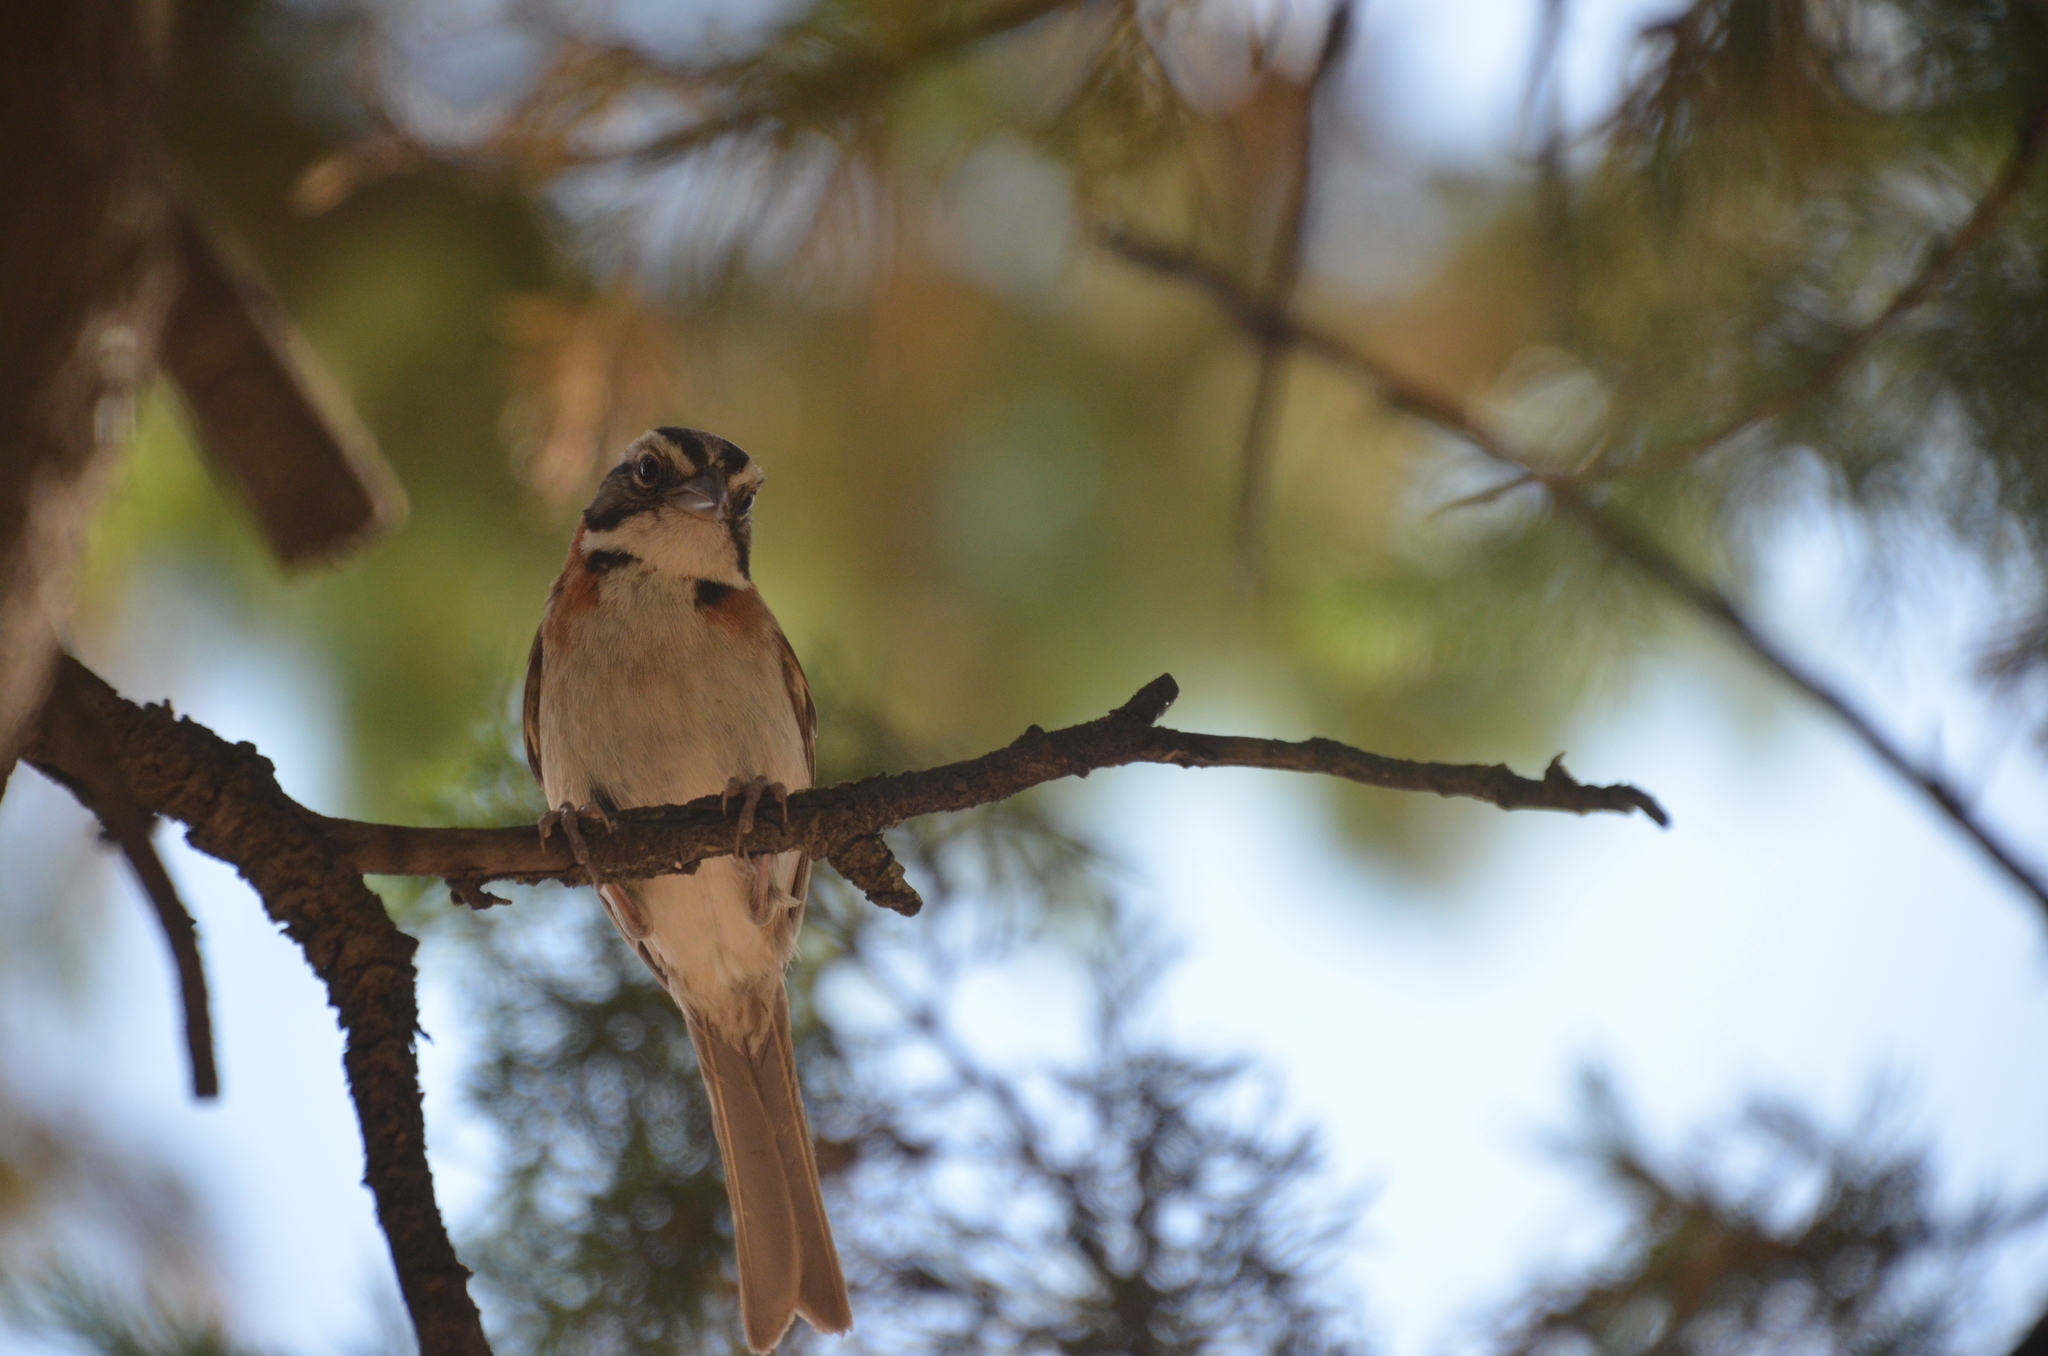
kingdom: Animalia
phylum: Chordata
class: Aves
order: Passeriformes
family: Passerellidae
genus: Zonotrichia
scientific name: Zonotrichia capensis
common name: Rufous-collared sparrow
